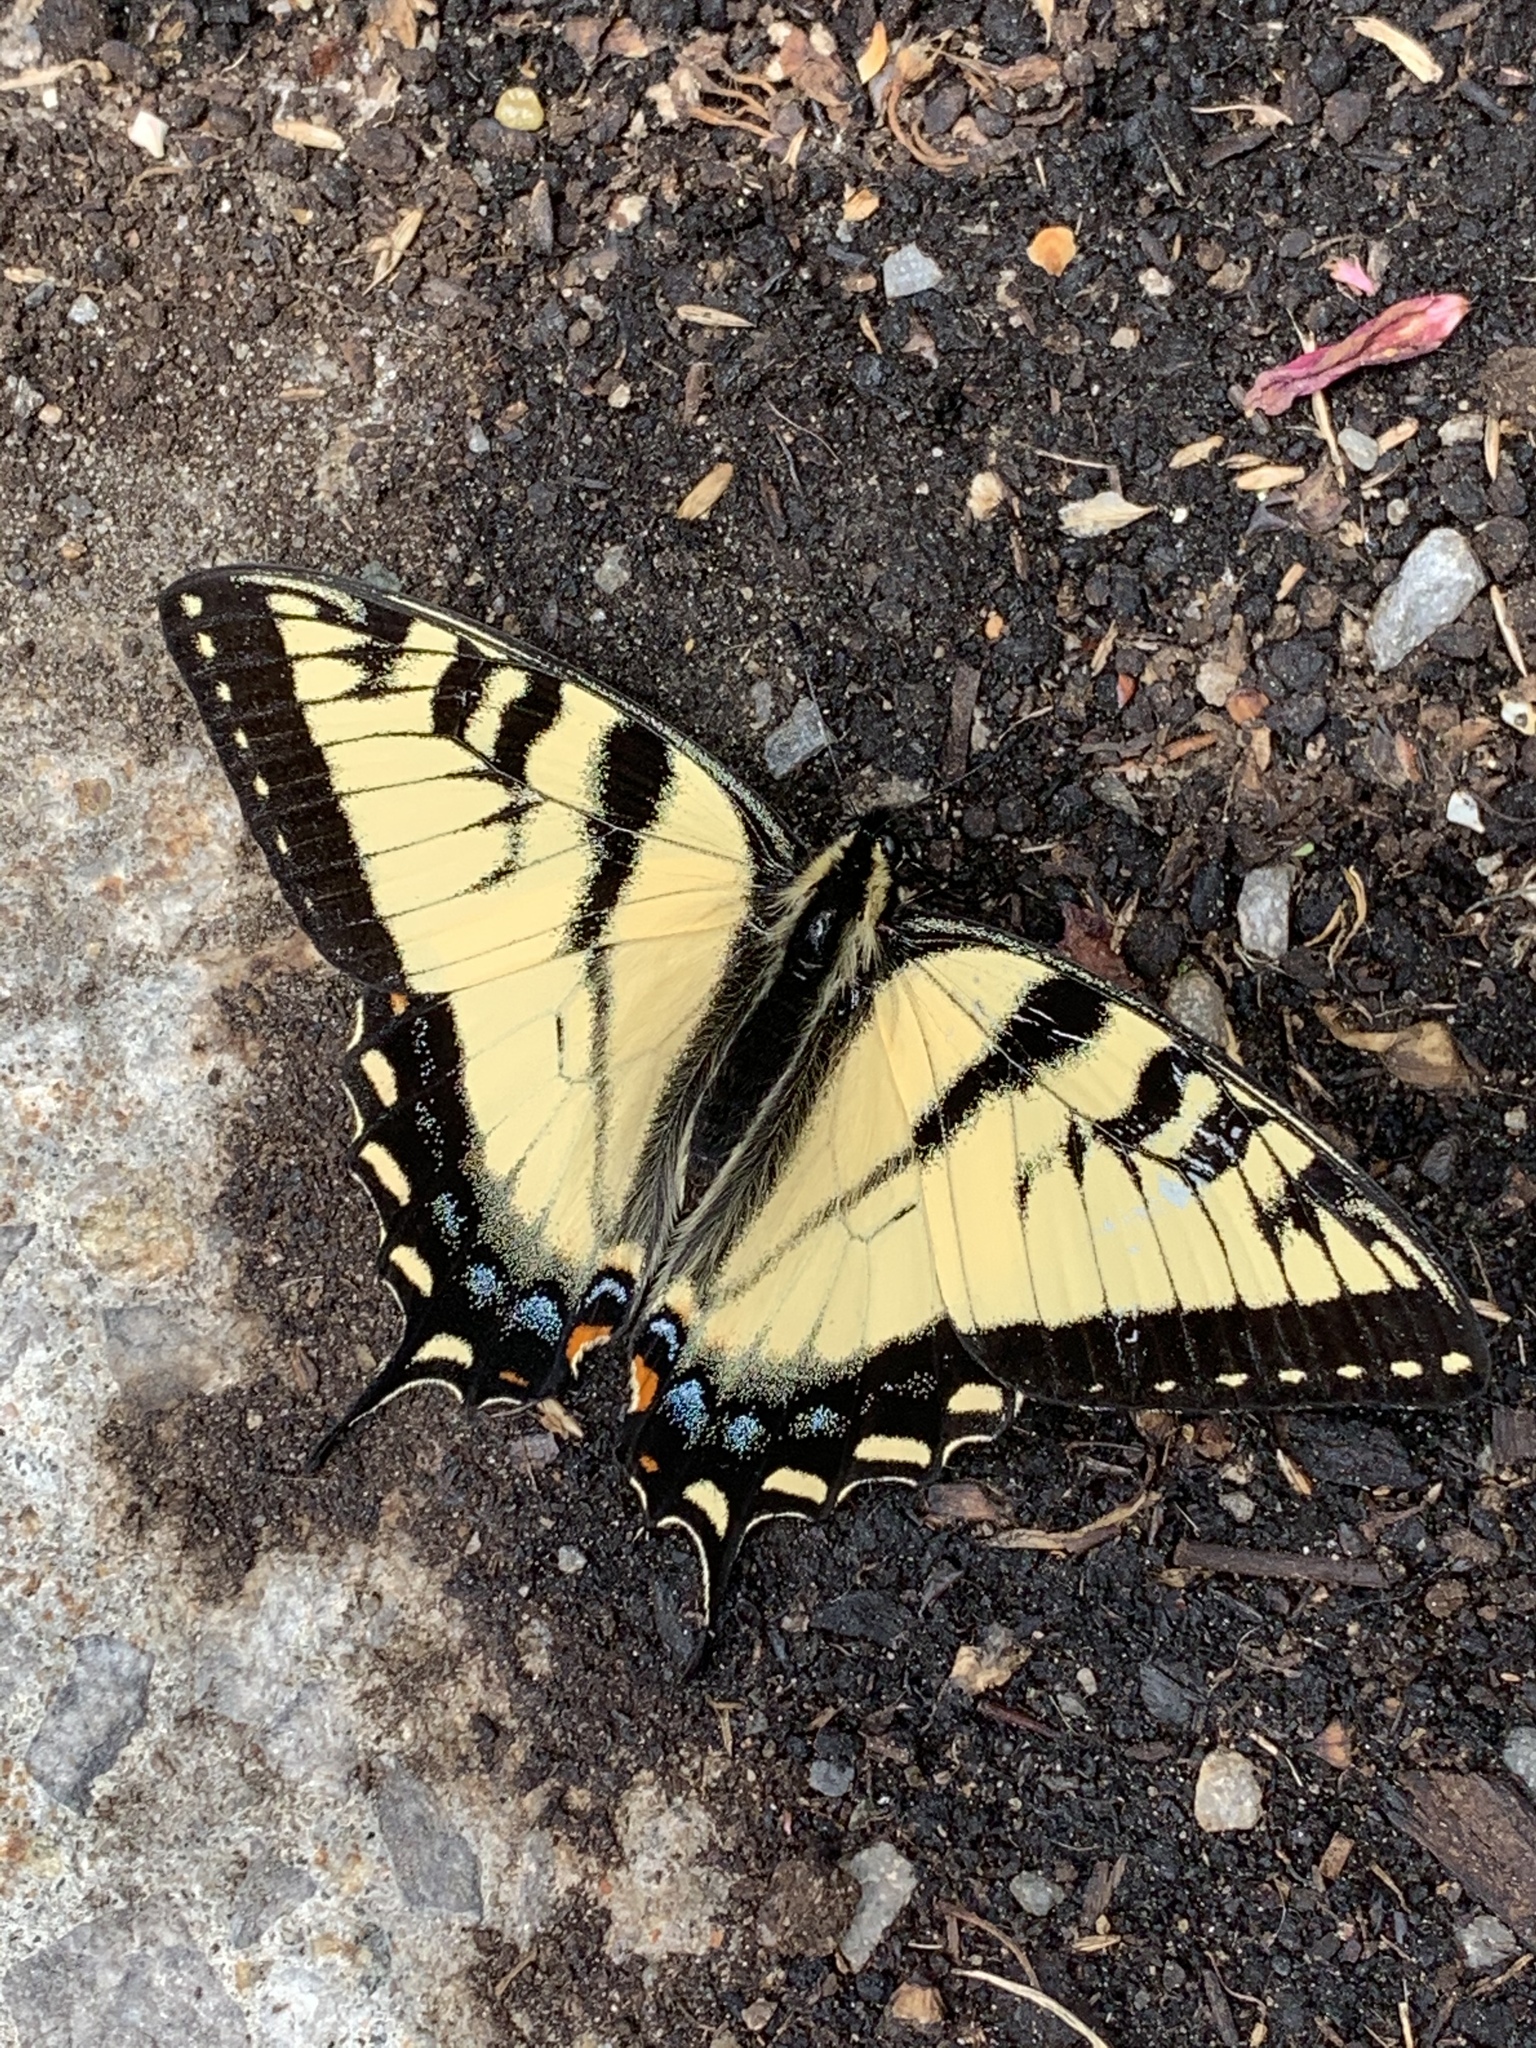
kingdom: Animalia
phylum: Arthropoda
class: Insecta
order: Lepidoptera
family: Papilionidae
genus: Papilio
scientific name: Papilio canadensis
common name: Canadian tiger swallowtail
